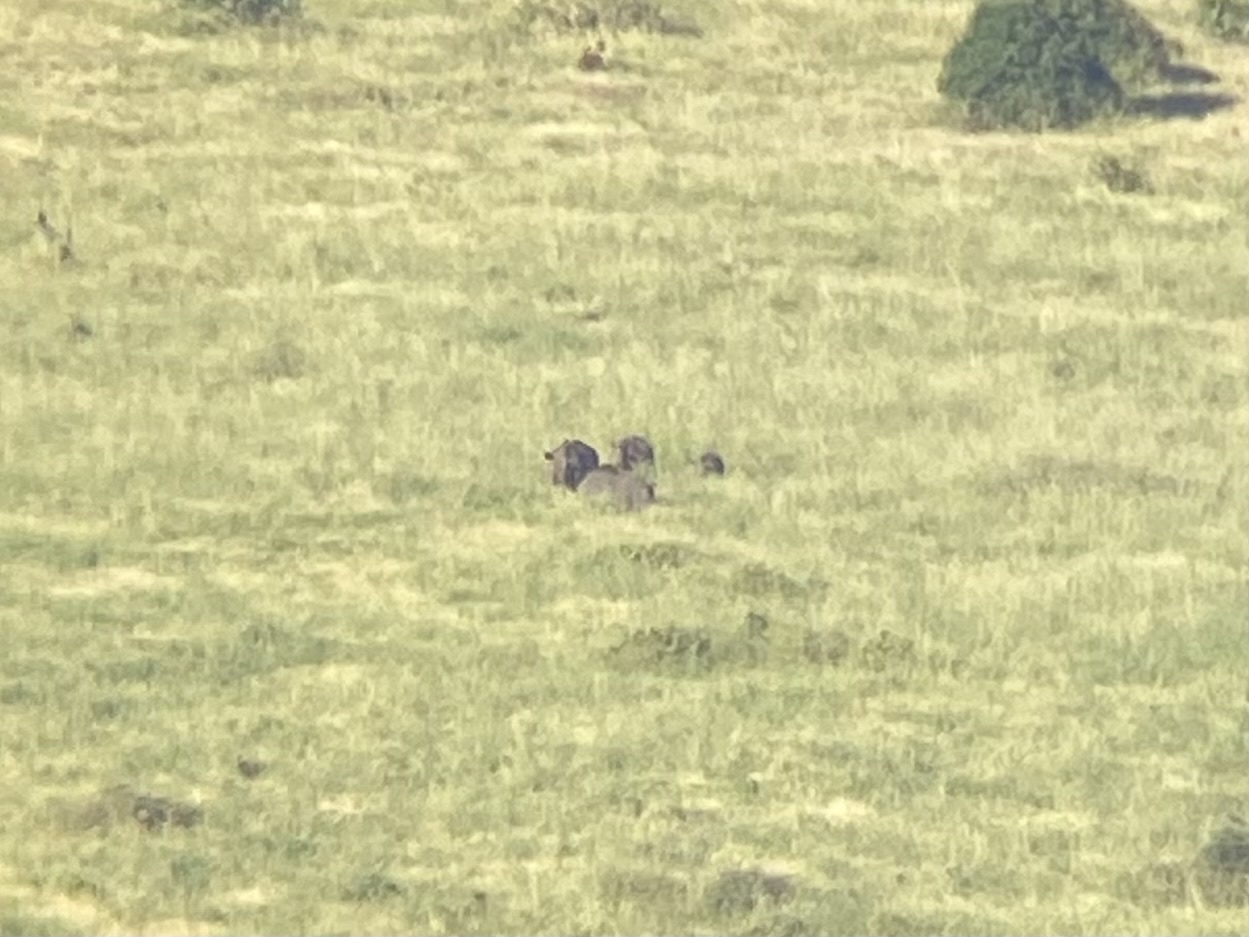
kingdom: Animalia
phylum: Chordata
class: Mammalia
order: Perissodactyla
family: Rhinocerotidae
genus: Ceratotherium
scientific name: Ceratotherium simum
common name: White rhinoceros
